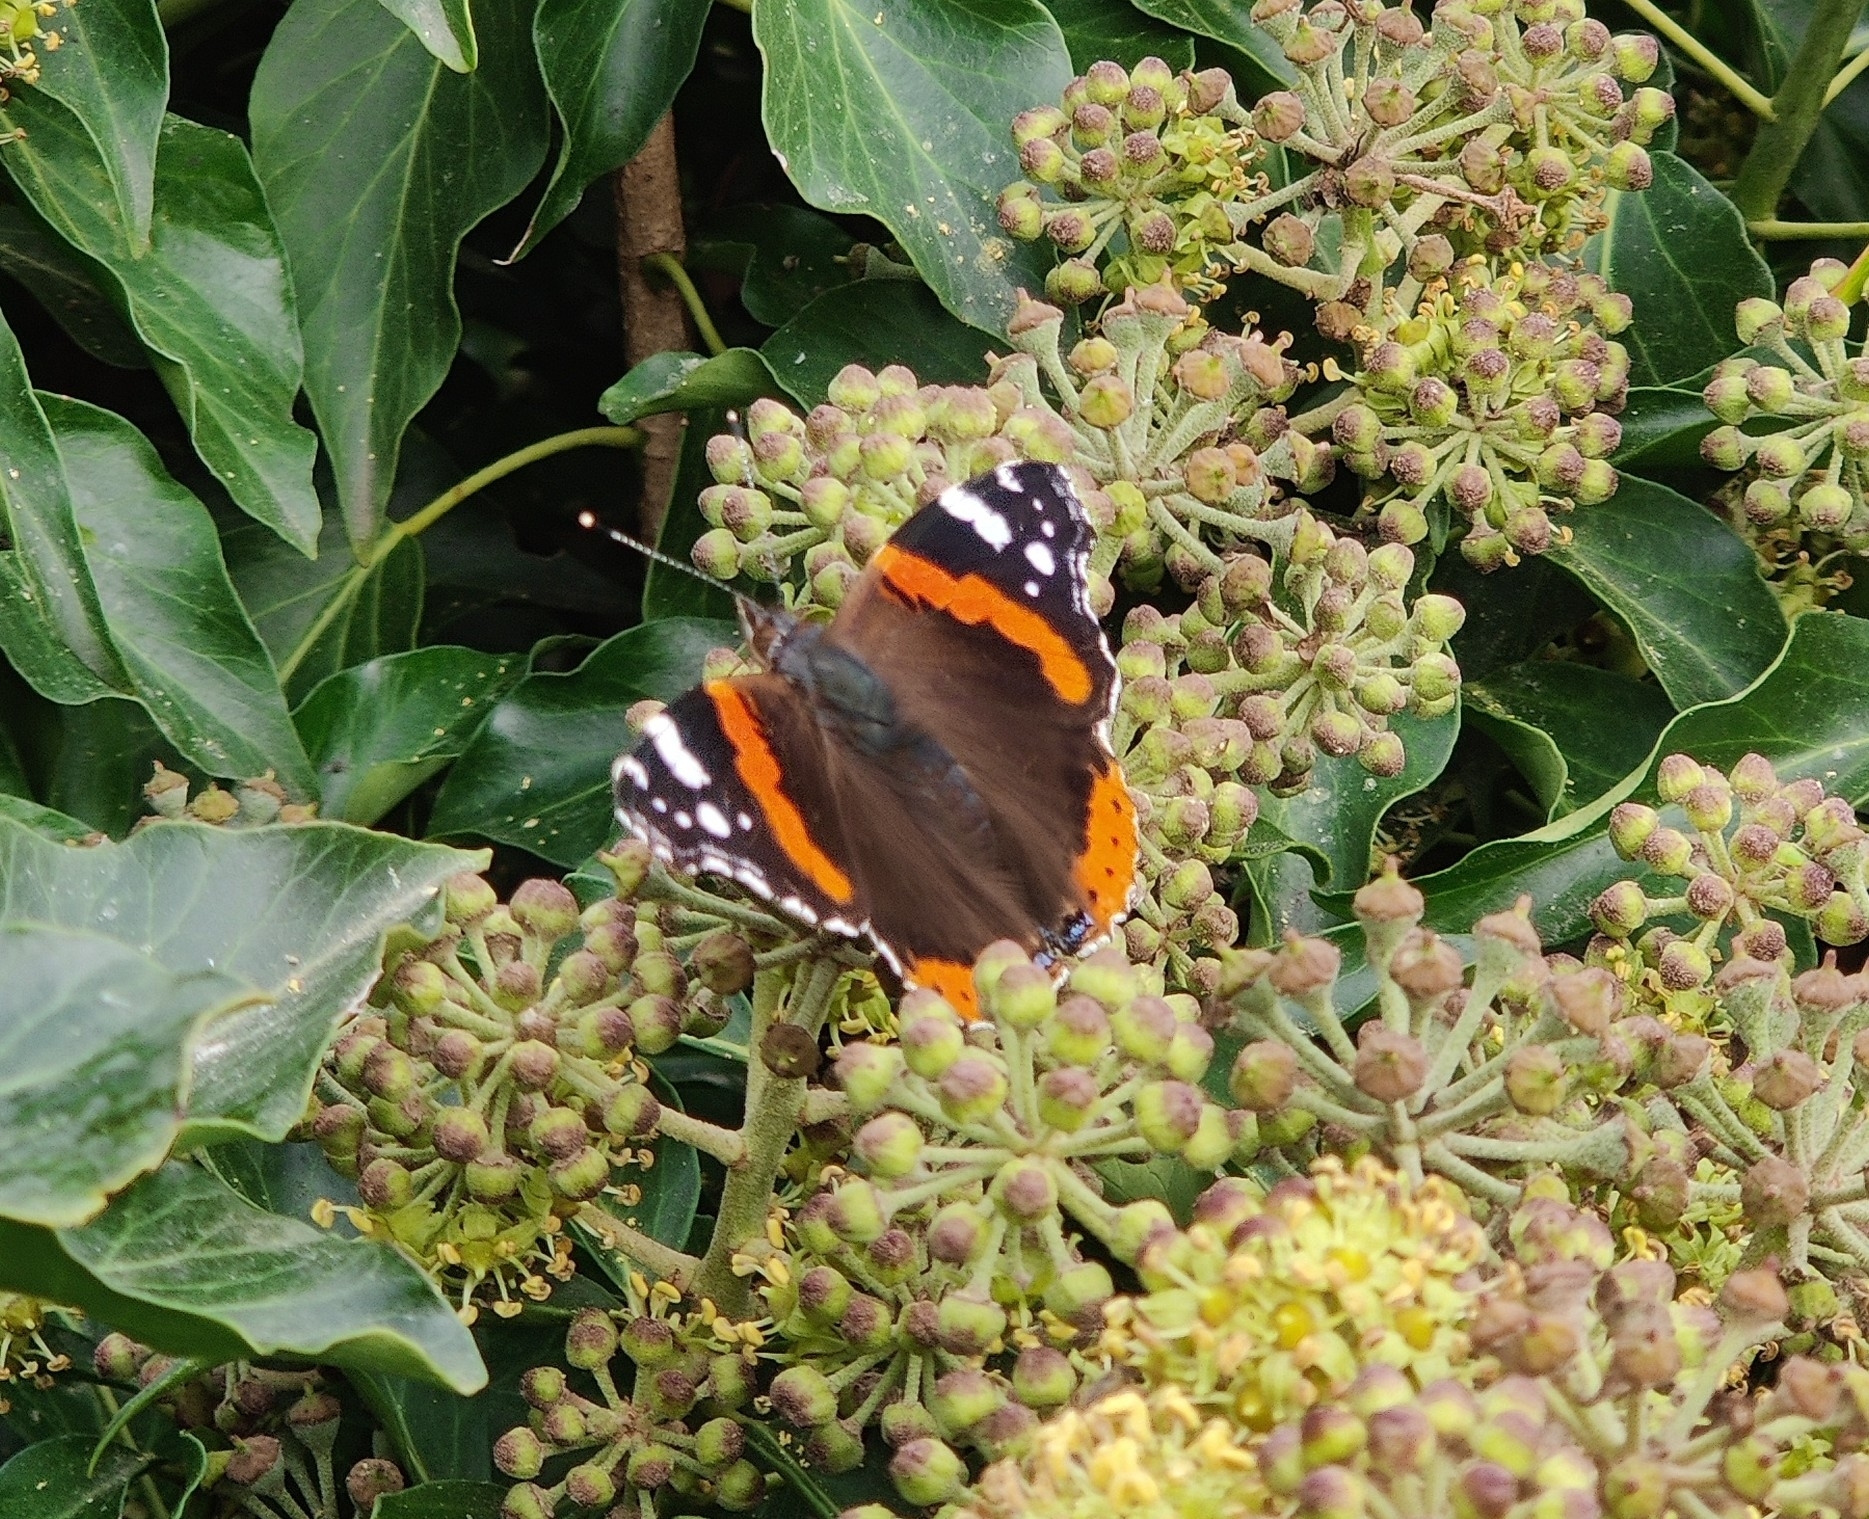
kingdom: Animalia
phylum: Arthropoda
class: Insecta
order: Lepidoptera
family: Nymphalidae
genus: Vanessa
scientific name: Vanessa atalanta
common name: Red admiral
